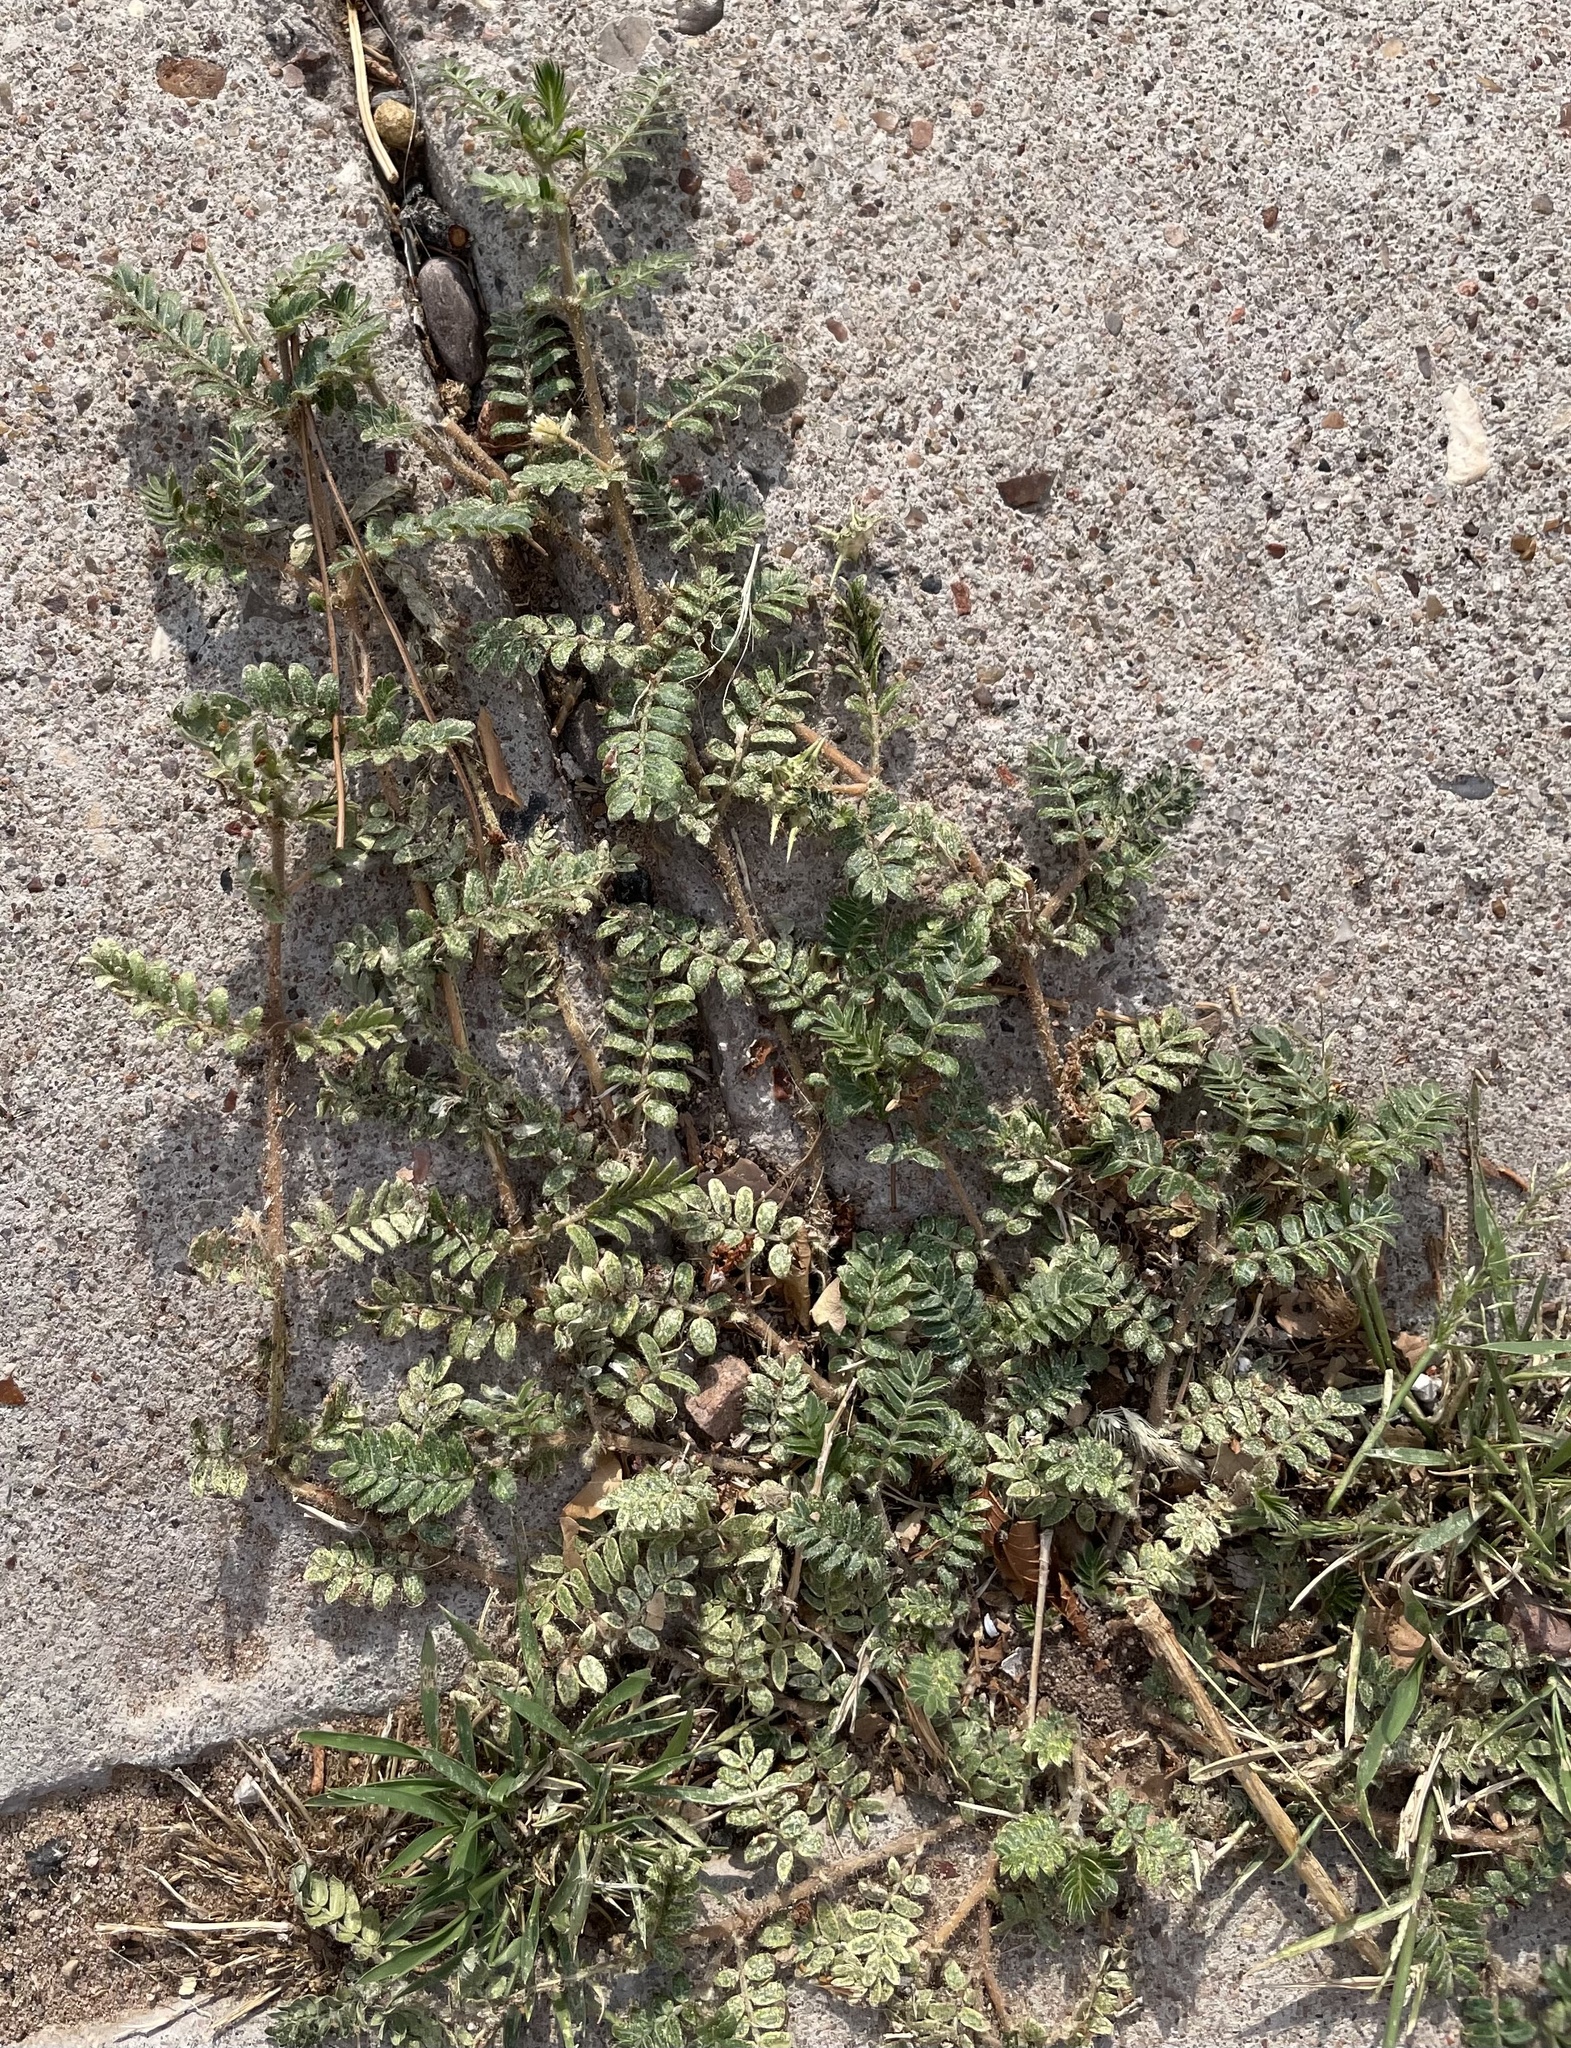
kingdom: Plantae
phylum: Tracheophyta
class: Magnoliopsida
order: Zygophyllales
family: Zygophyllaceae
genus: Tribulus
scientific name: Tribulus terrestris
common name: Puncturevine
